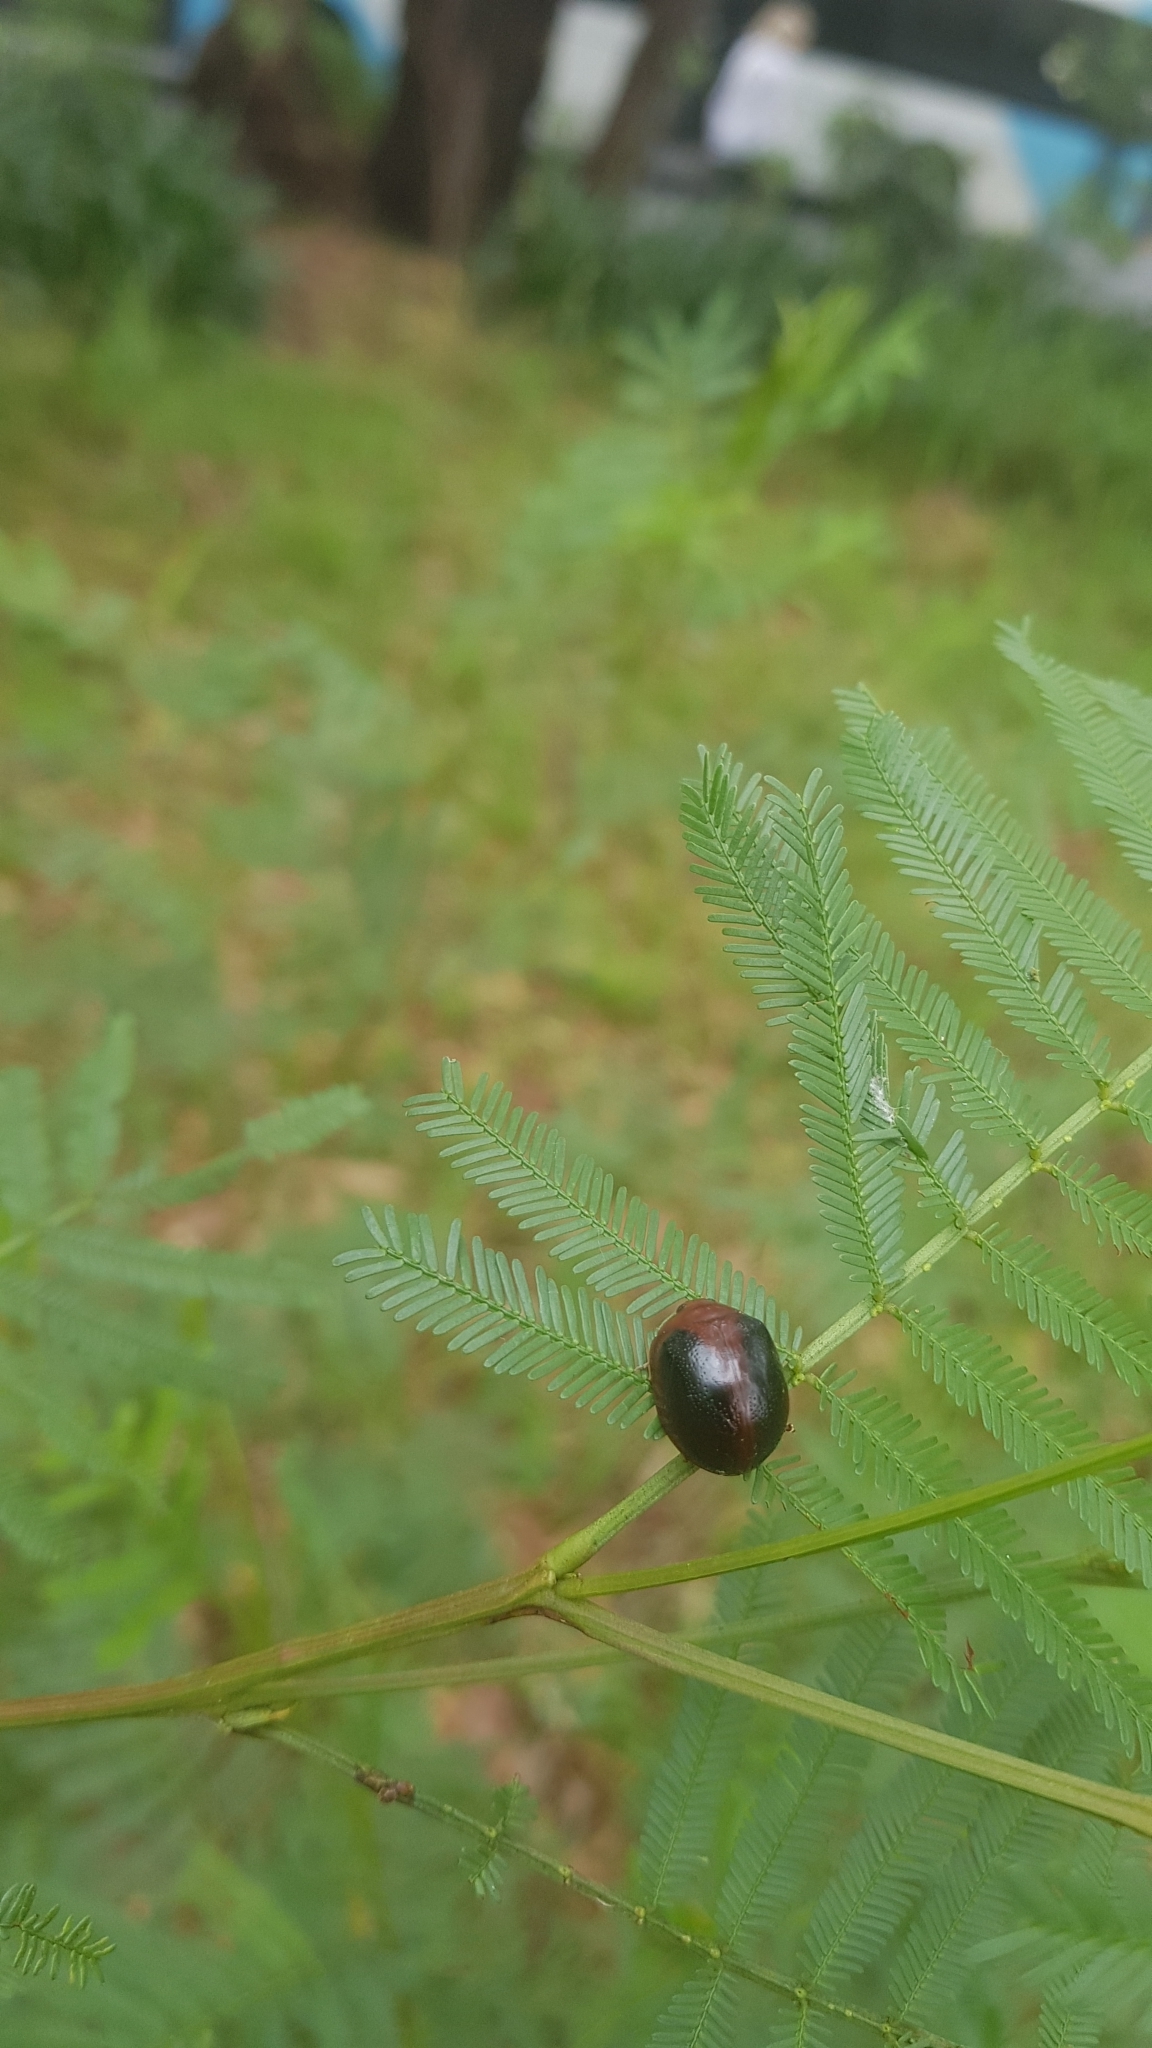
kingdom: Animalia
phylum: Arthropoda
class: Insecta
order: Coleoptera
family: Chrysomelidae
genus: Dicranosterna
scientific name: Dicranosterna
